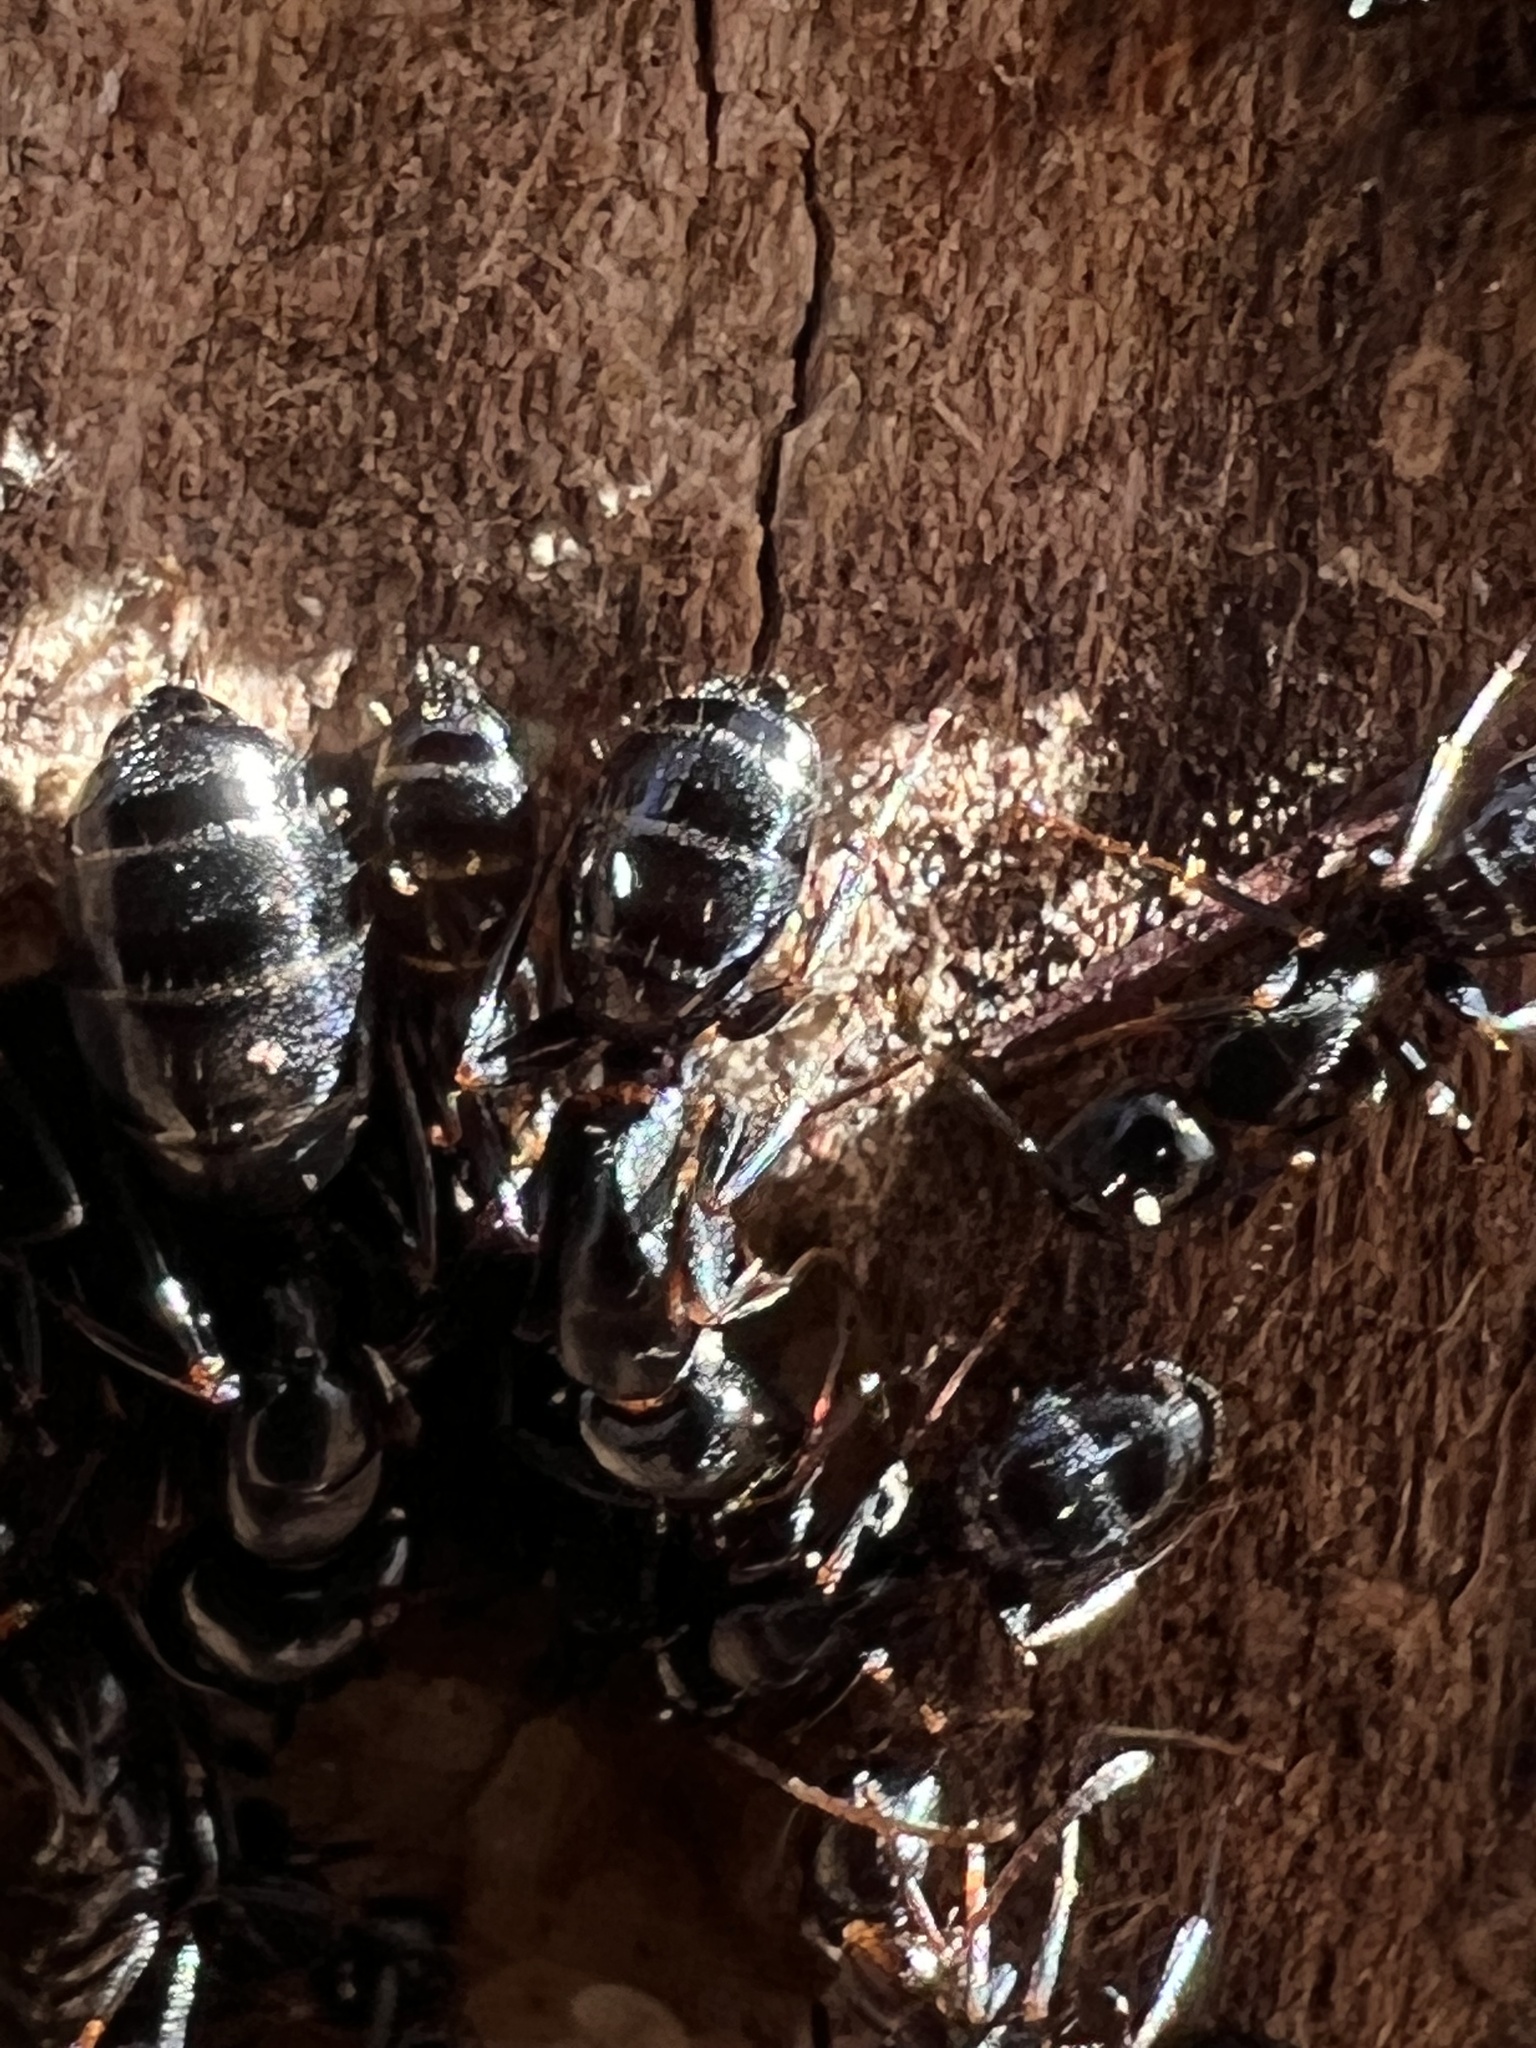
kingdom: Animalia
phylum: Arthropoda
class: Insecta
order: Hymenoptera
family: Formicidae
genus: Camponotus
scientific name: Camponotus nearcticus
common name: Smaller carpenter ant
